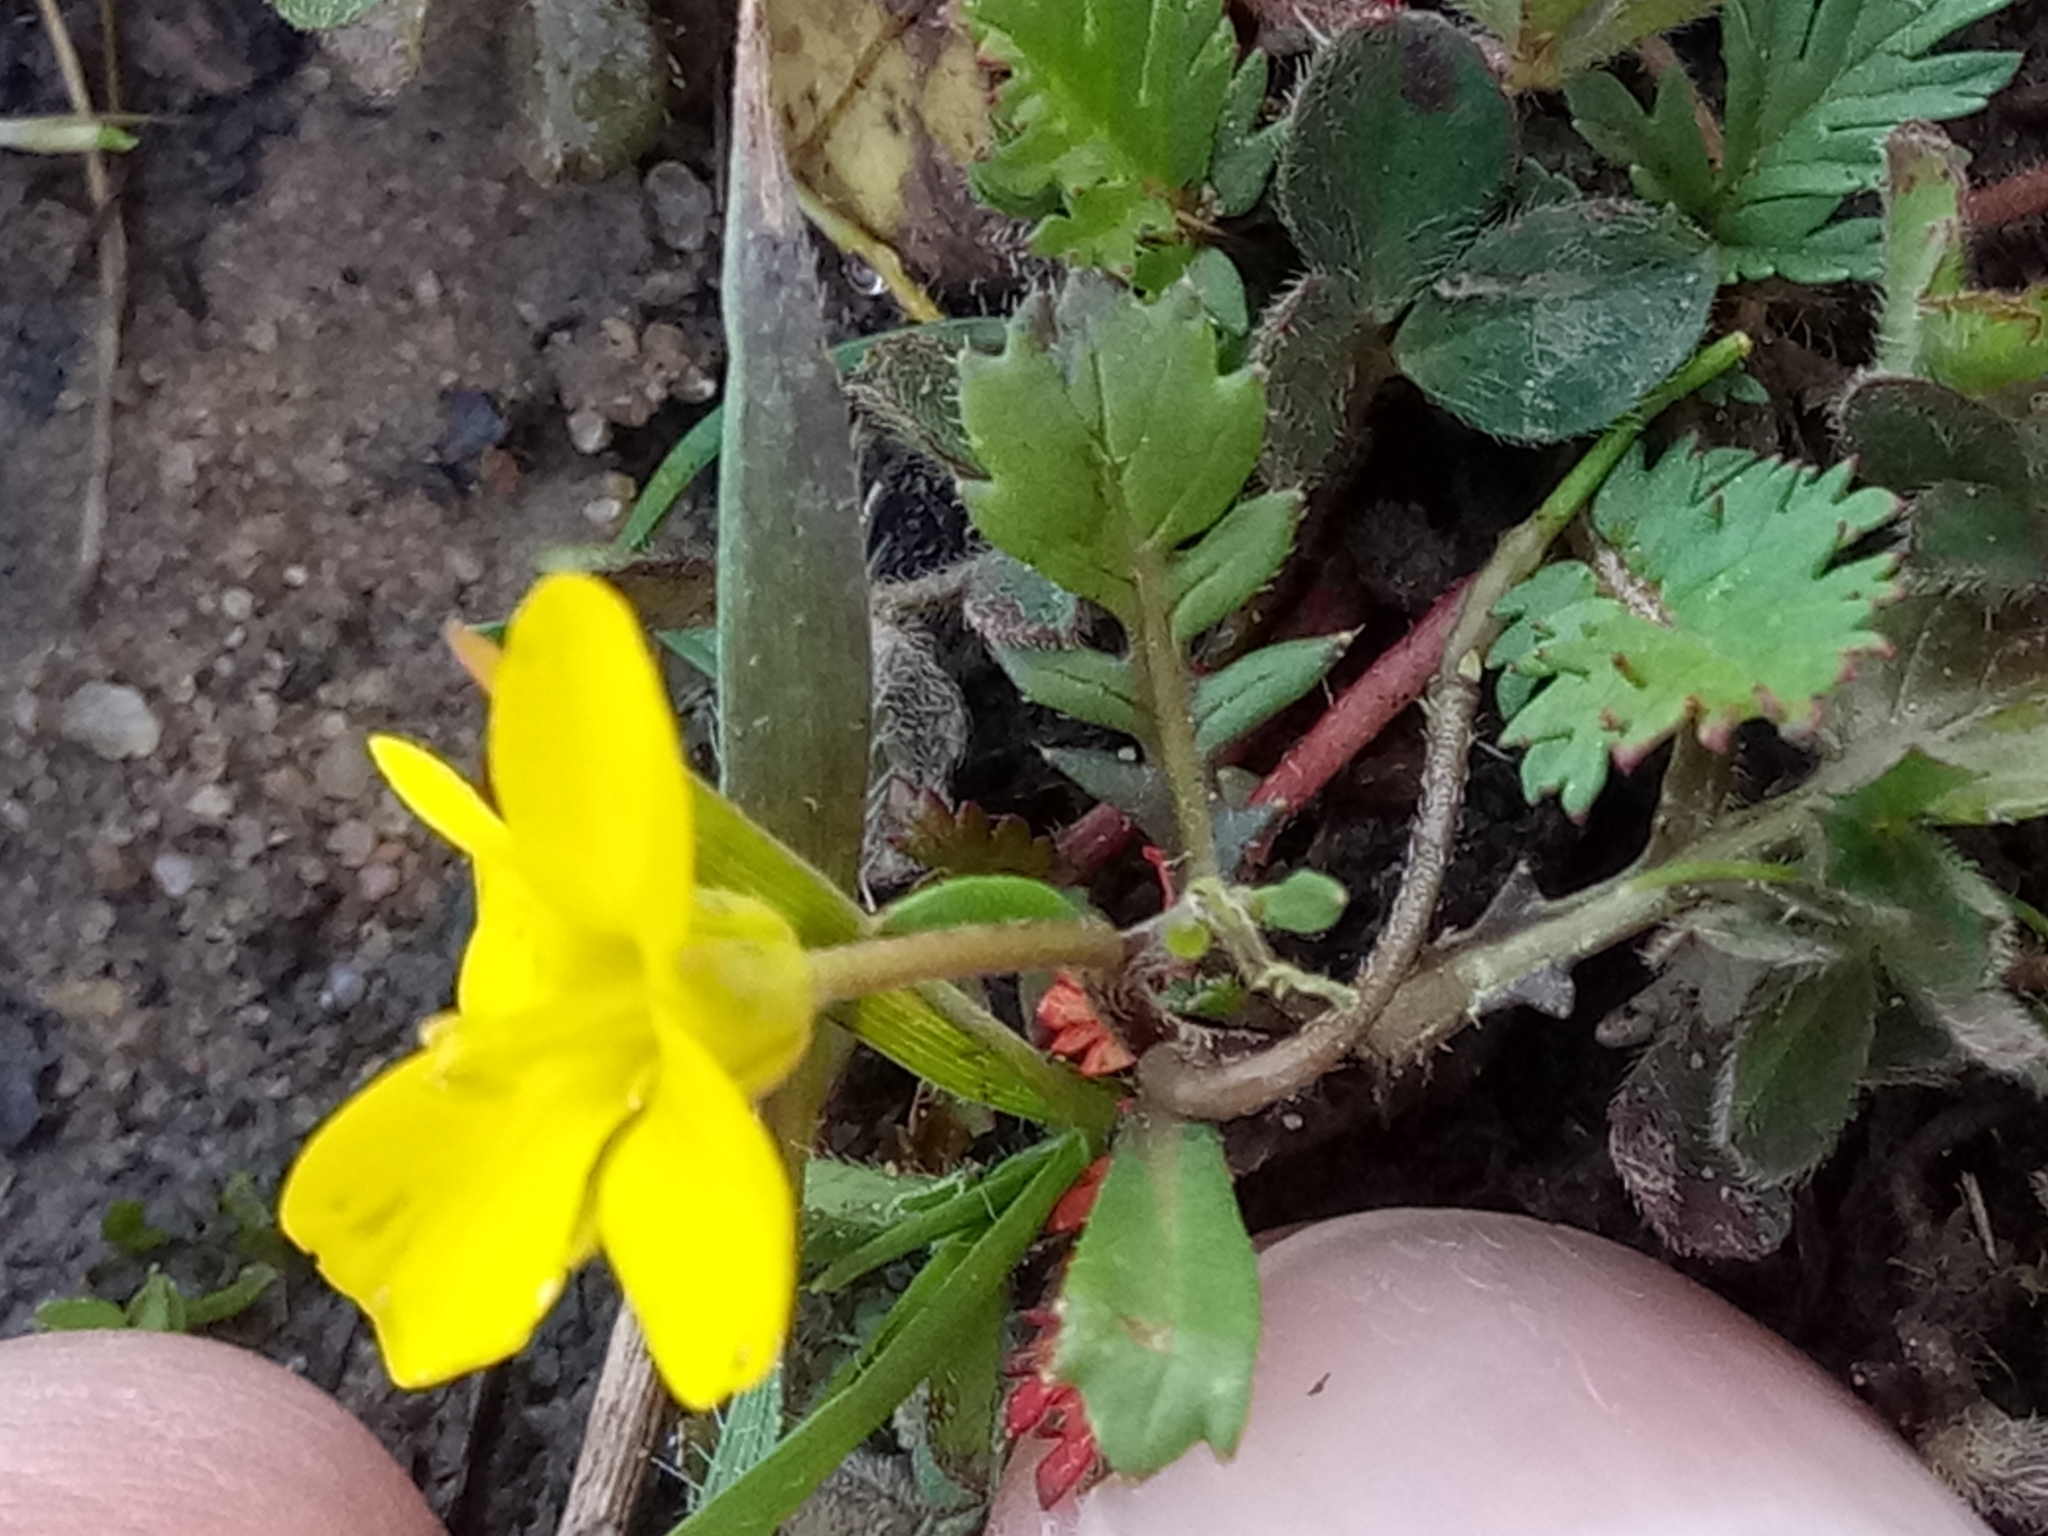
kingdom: Plantae
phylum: Tracheophyta
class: Magnoliopsida
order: Brassicales
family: Brassicaceae
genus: Diplotaxis
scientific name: Diplotaxis muralis
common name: Annual wall-rocket
